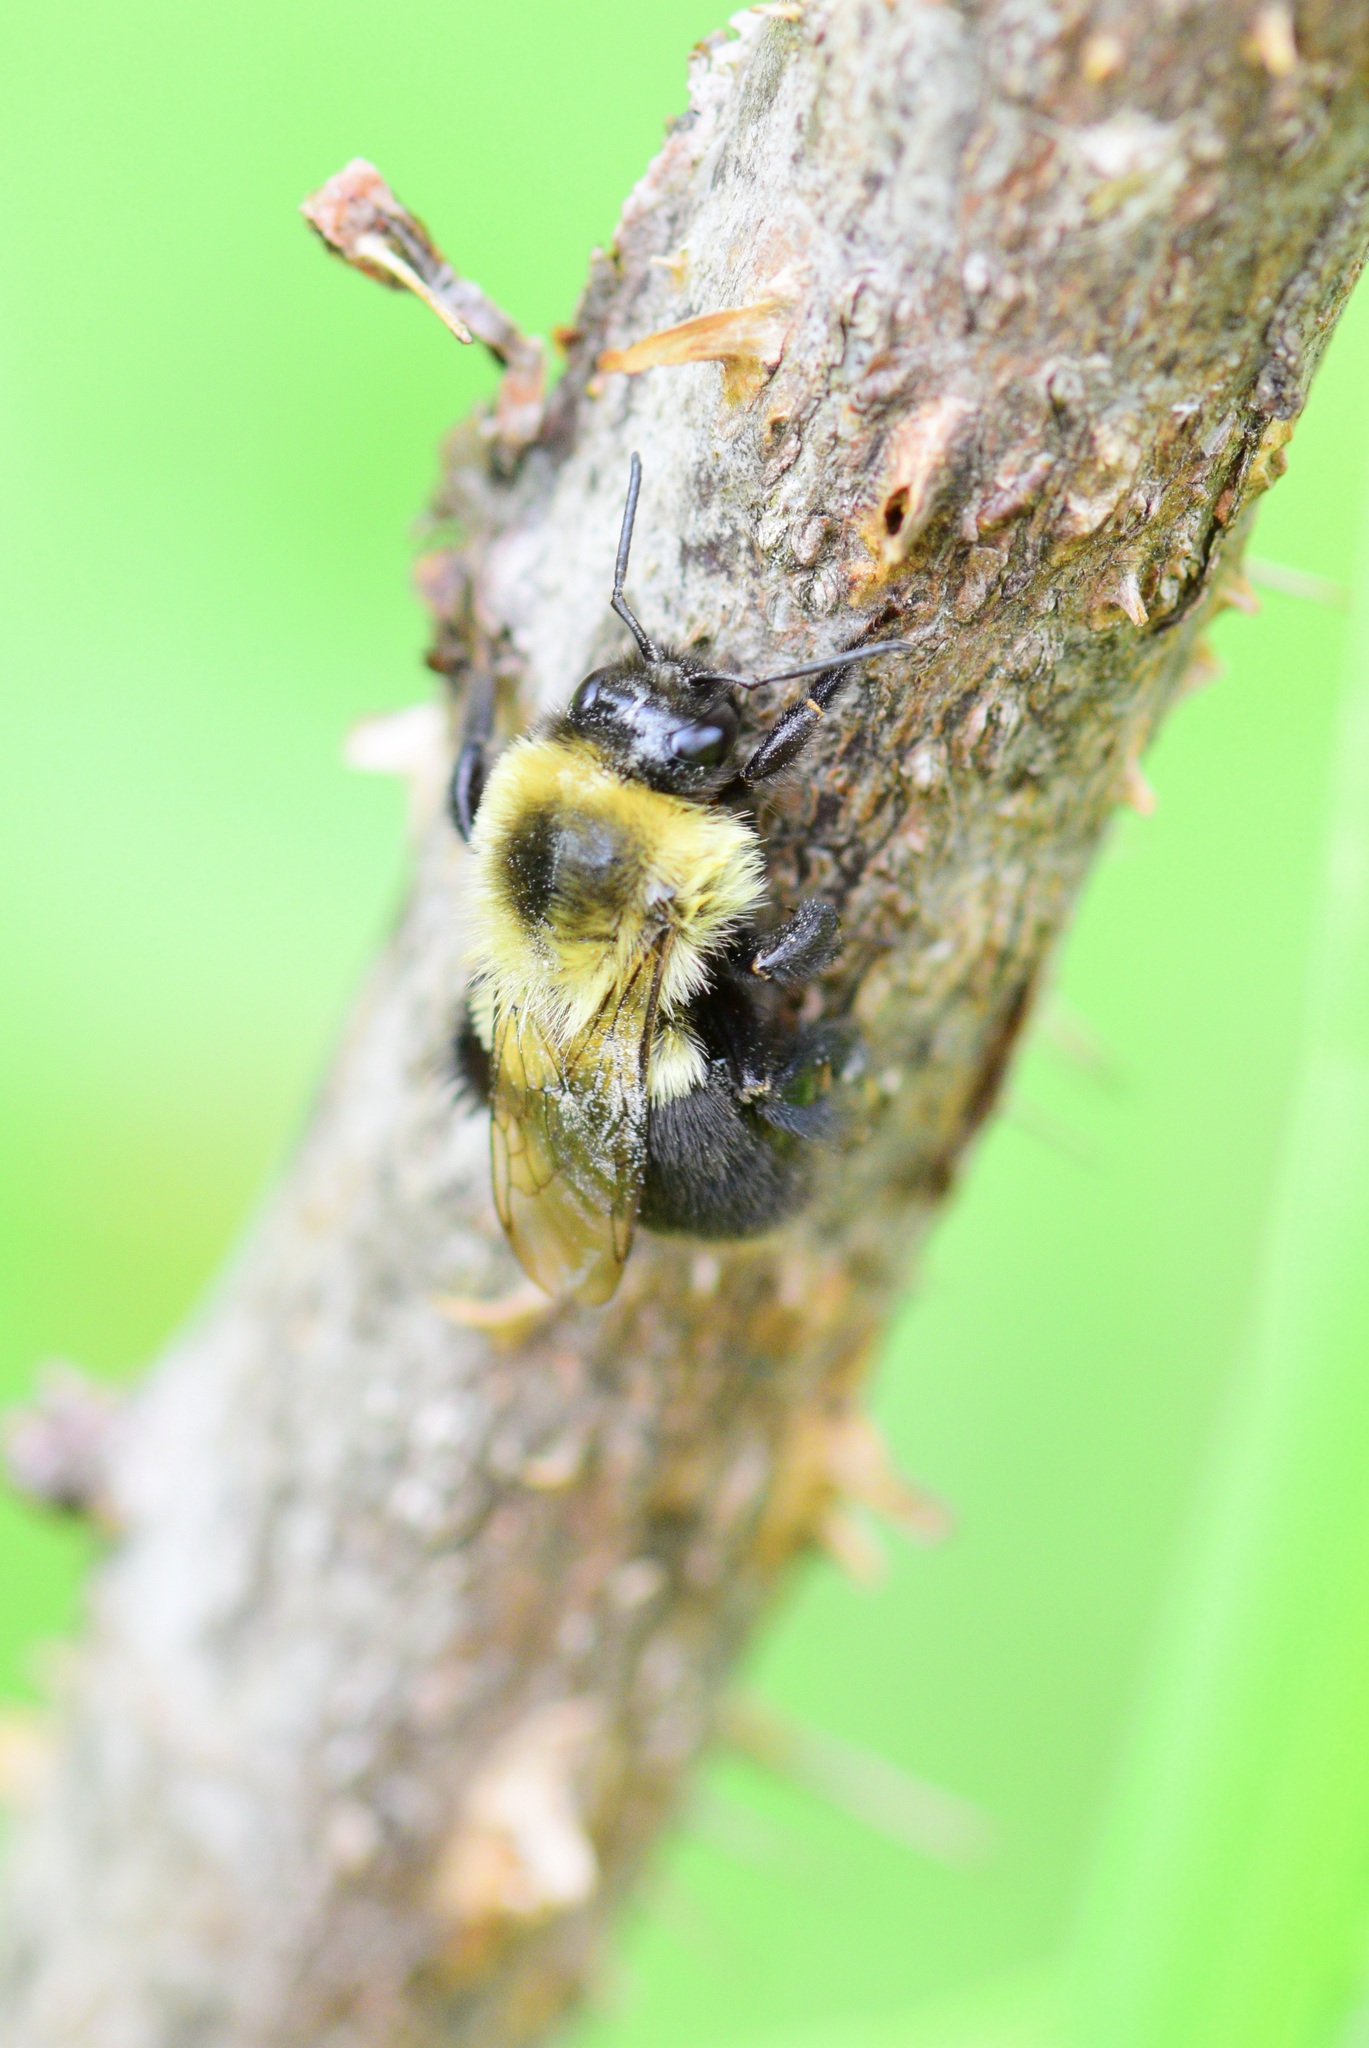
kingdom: Animalia
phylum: Arthropoda
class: Insecta
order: Hymenoptera
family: Apidae
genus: Bombus
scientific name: Bombus impatiens
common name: Common eastern bumble bee
